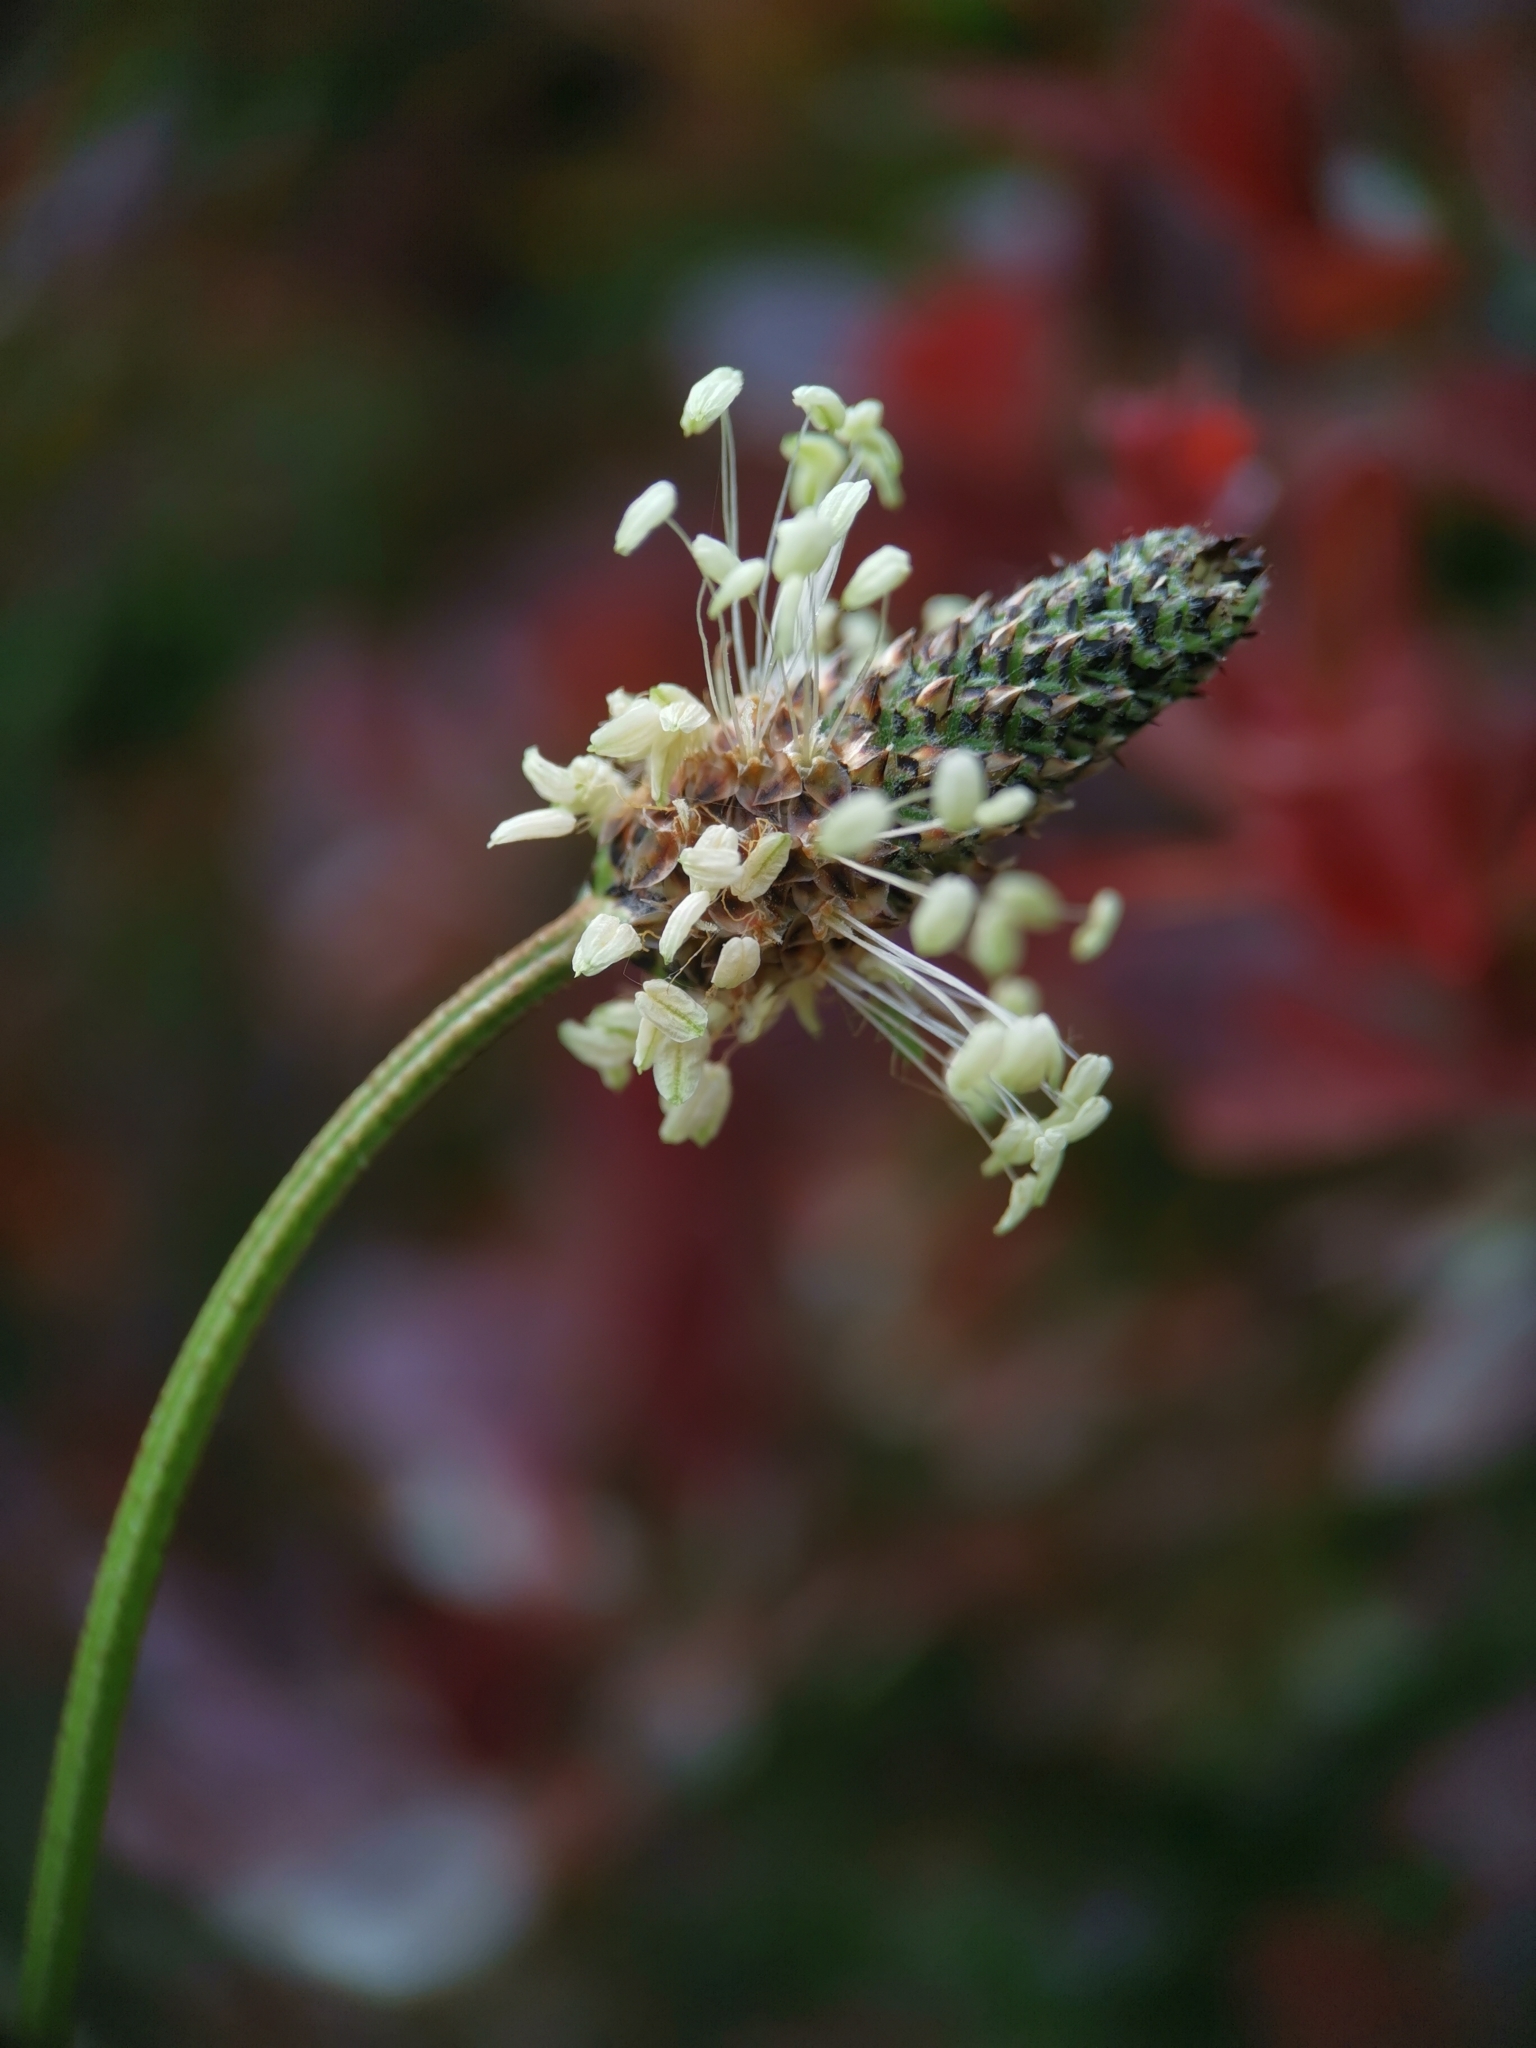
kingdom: Plantae
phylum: Tracheophyta
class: Magnoliopsida
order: Lamiales
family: Plantaginaceae
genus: Plantago
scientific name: Plantago lanceolata
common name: Ribwort plantain
